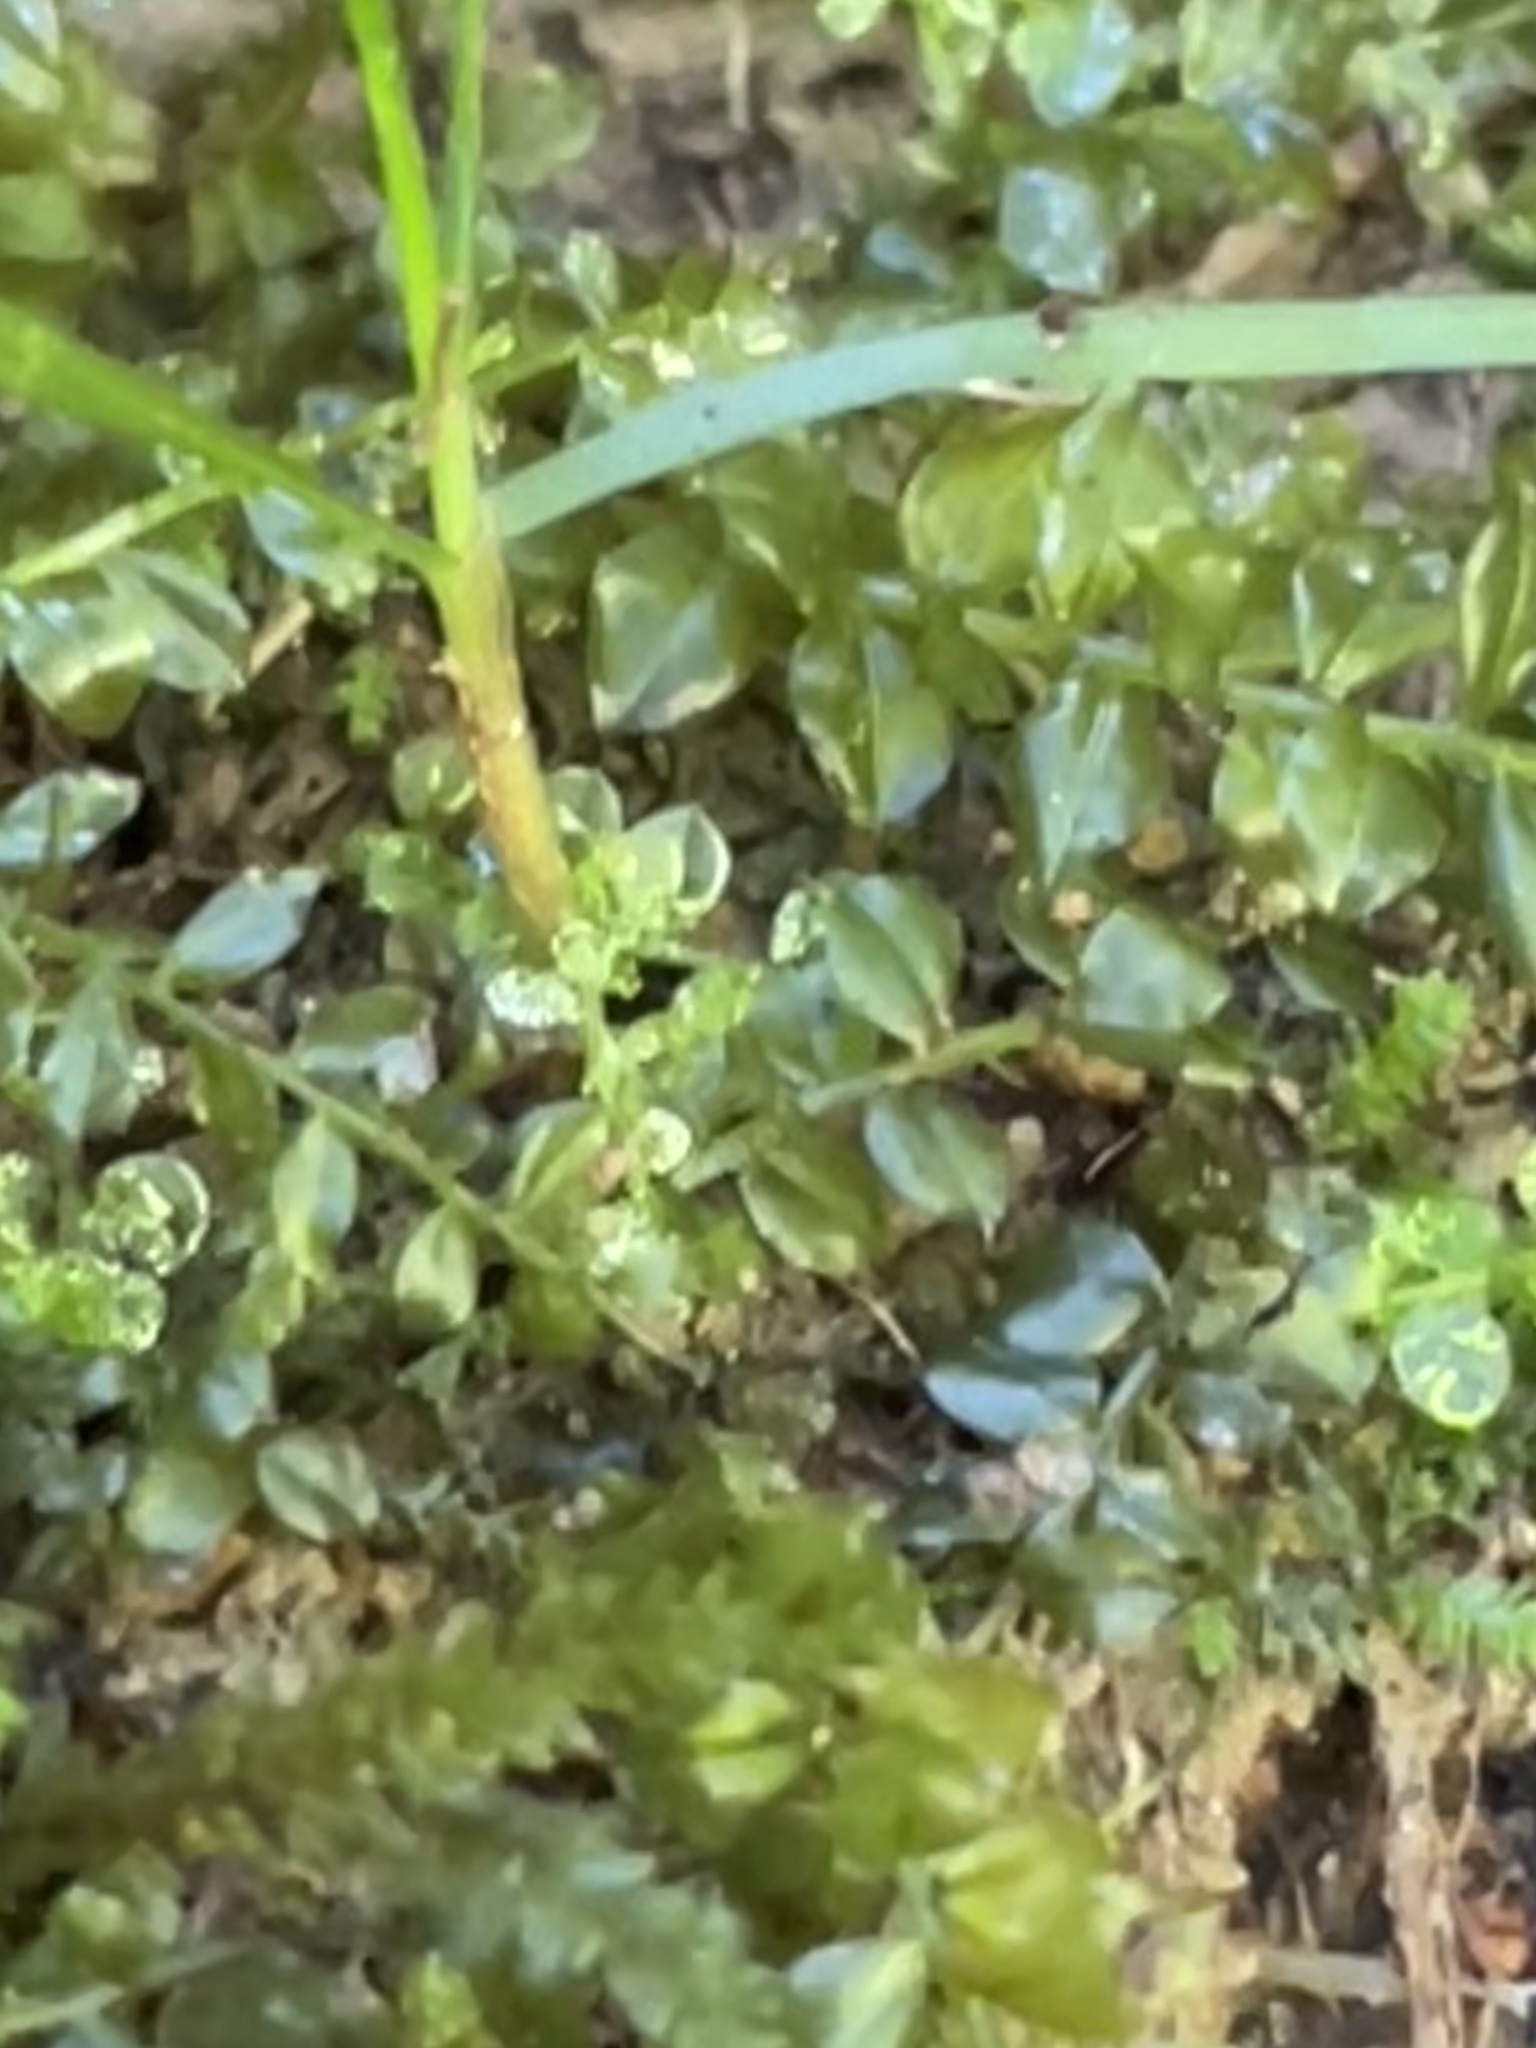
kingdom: Plantae
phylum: Bryophyta
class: Bryopsida
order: Bryales
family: Mniaceae
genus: Plagiomnium
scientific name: Plagiomnium cuspidatum
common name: Woodsy leafy moss
